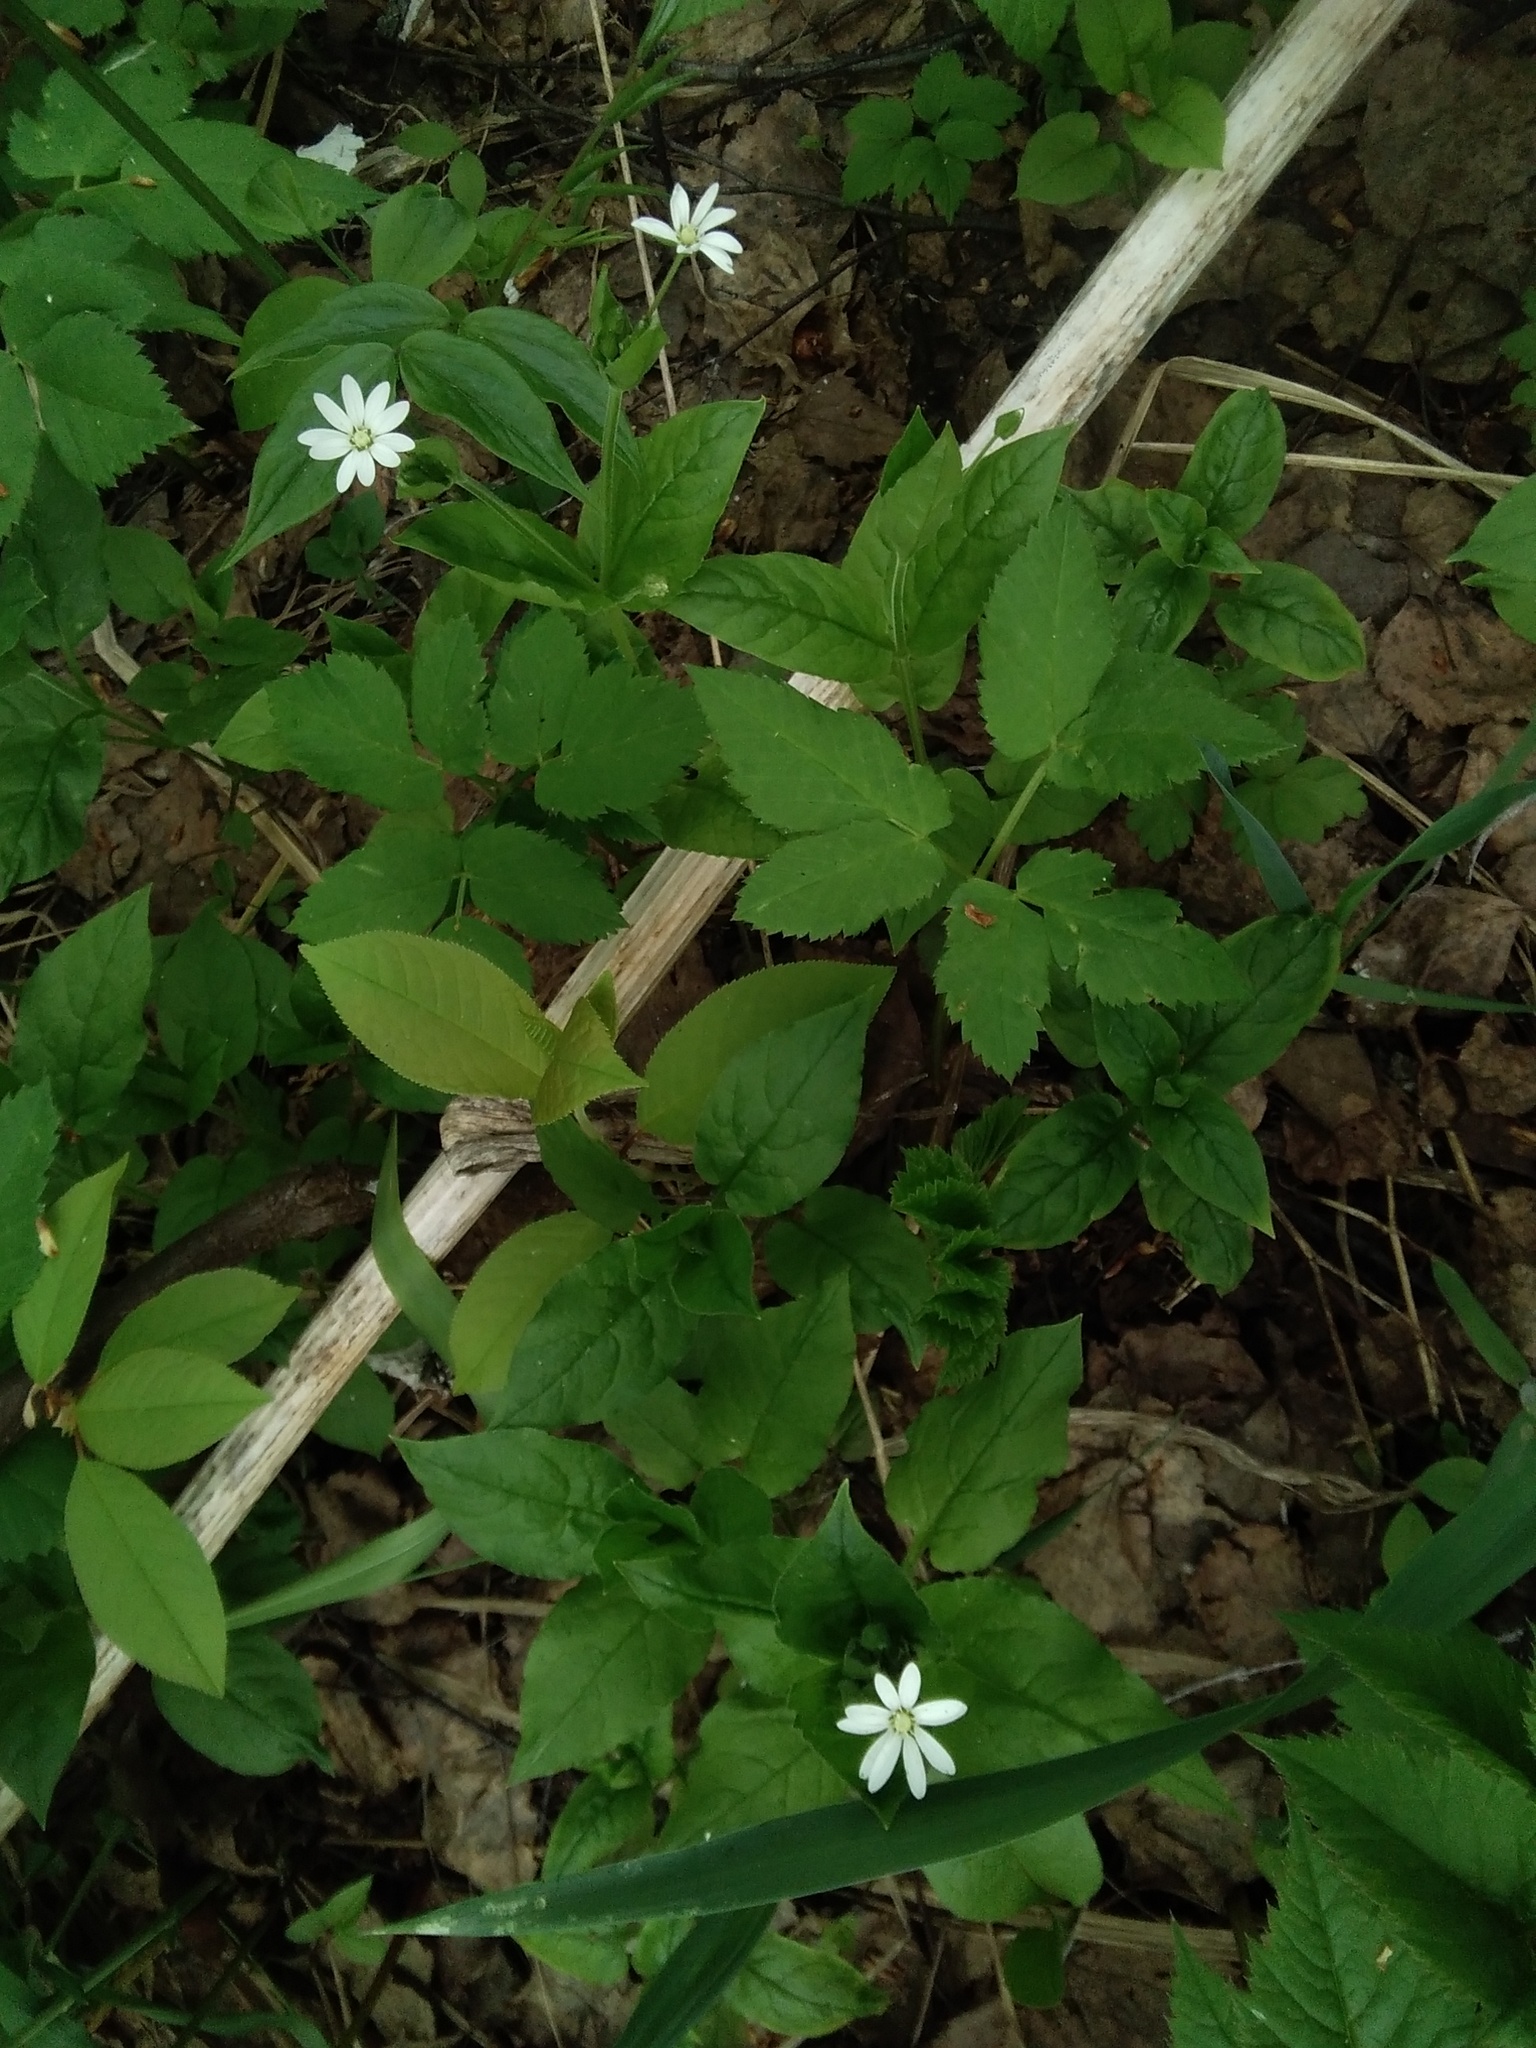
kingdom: Plantae
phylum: Tracheophyta
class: Magnoliopsida
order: Caryophyllales
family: Caryophyllaceae
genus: Stellaria
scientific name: Stellaria bungeana
